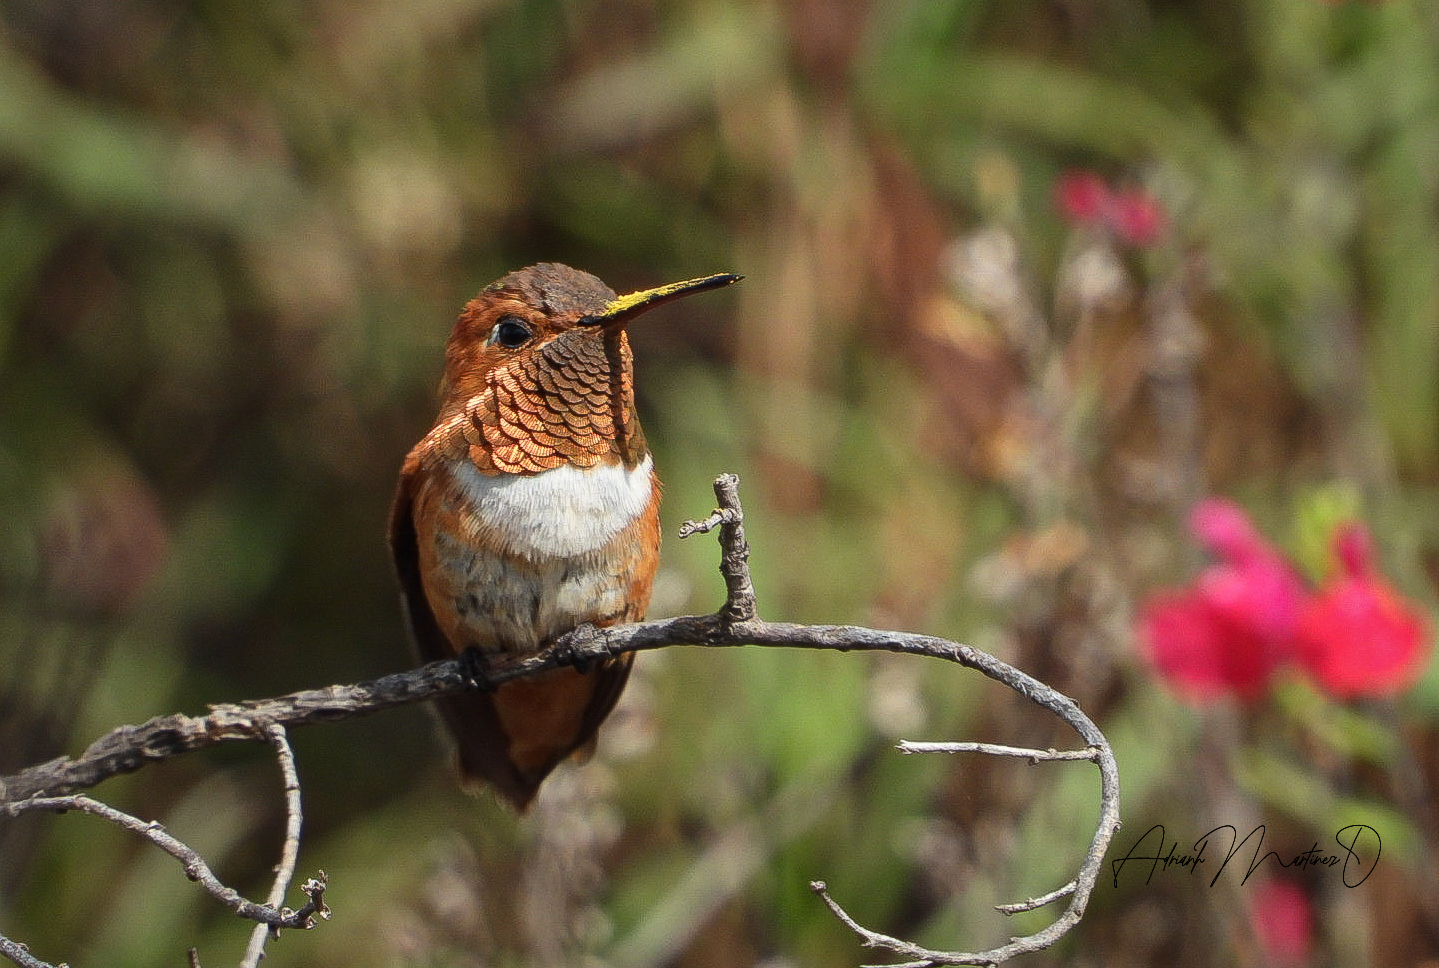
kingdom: Animalia
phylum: Chordata
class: Aves
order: Apodiformes
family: Trochilidae
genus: Selasphorus
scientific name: Selasphorus rufus
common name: Rufous hummingbird
